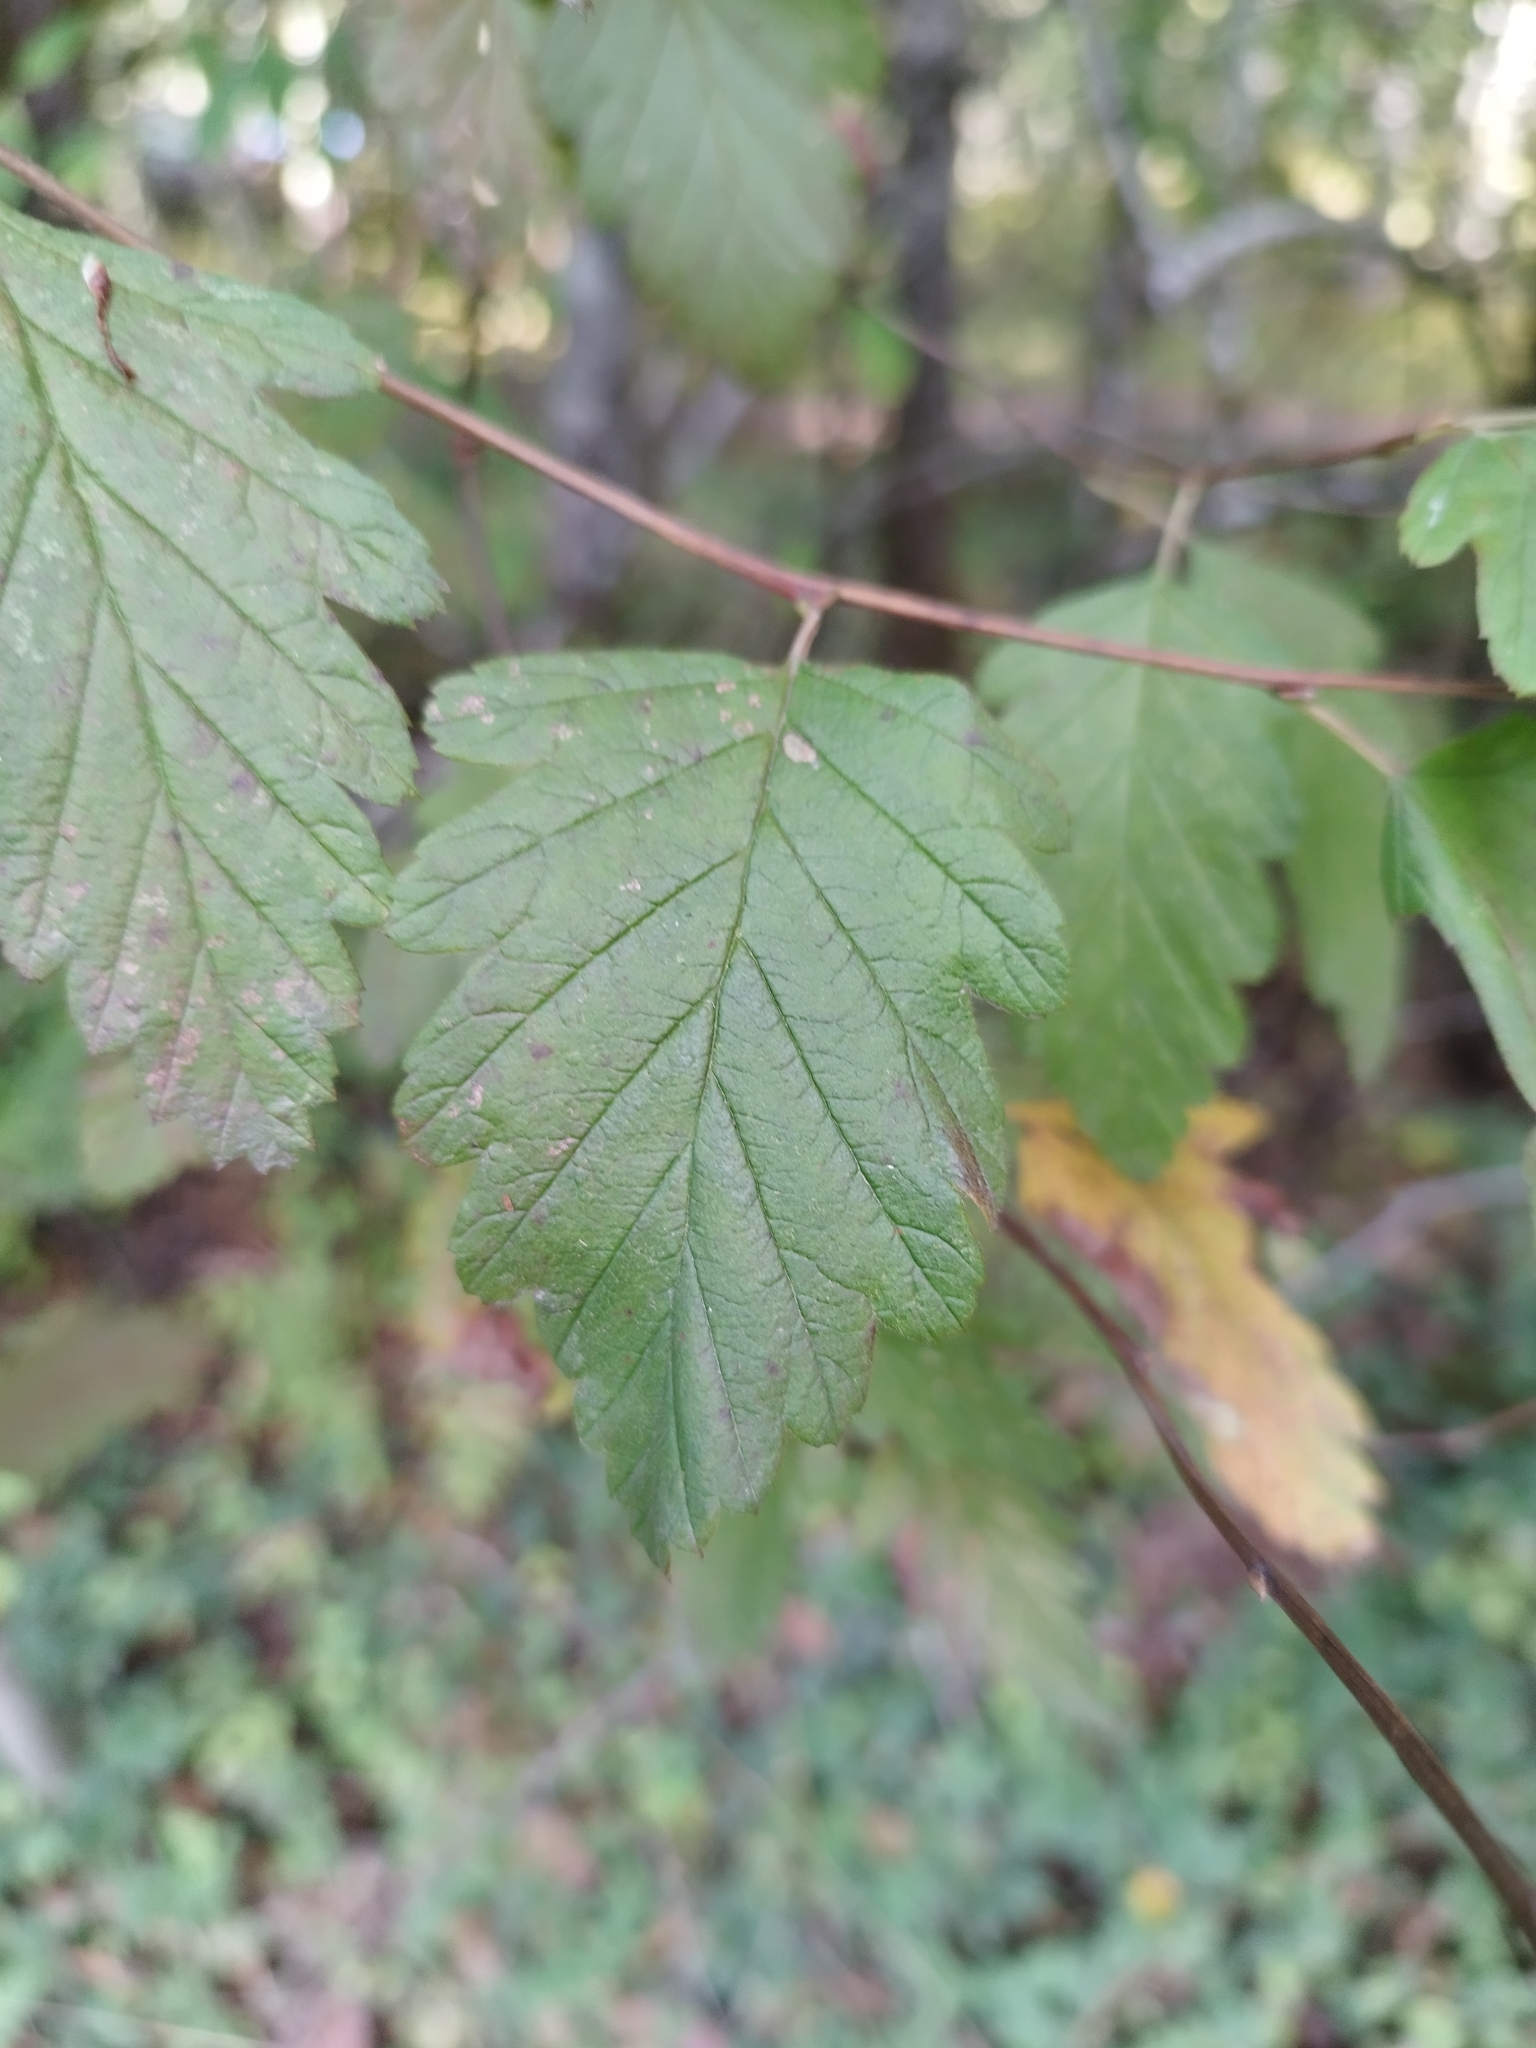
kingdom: Plantae
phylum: Tracheophyta
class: Magnoliopsida
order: Rosales
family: Rosaceae
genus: Holodiscus
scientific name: Holodiscus discolor
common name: Oceanspray
